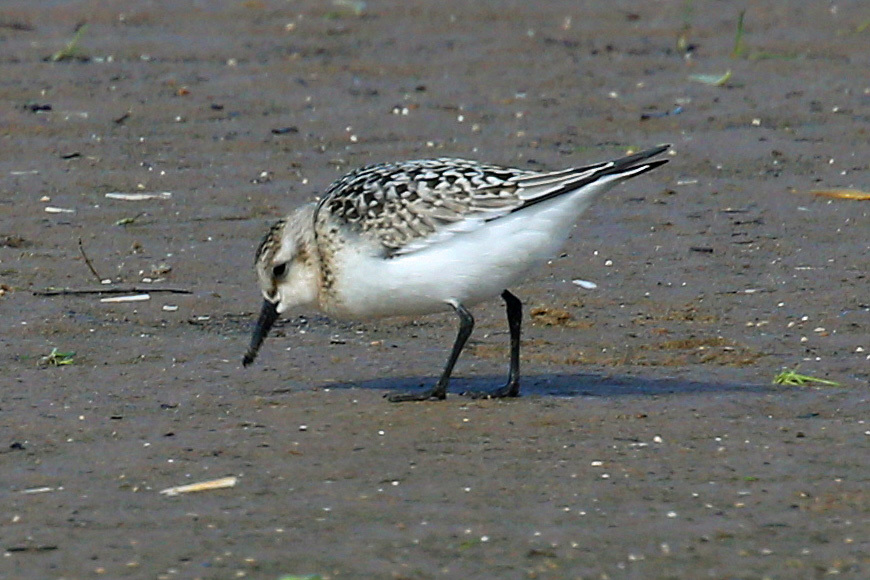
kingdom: Animalia
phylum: Chordata
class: Aves
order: Charadriiformes
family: Scolopacidae
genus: Calidris
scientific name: Calidris alba
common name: Sanderling
